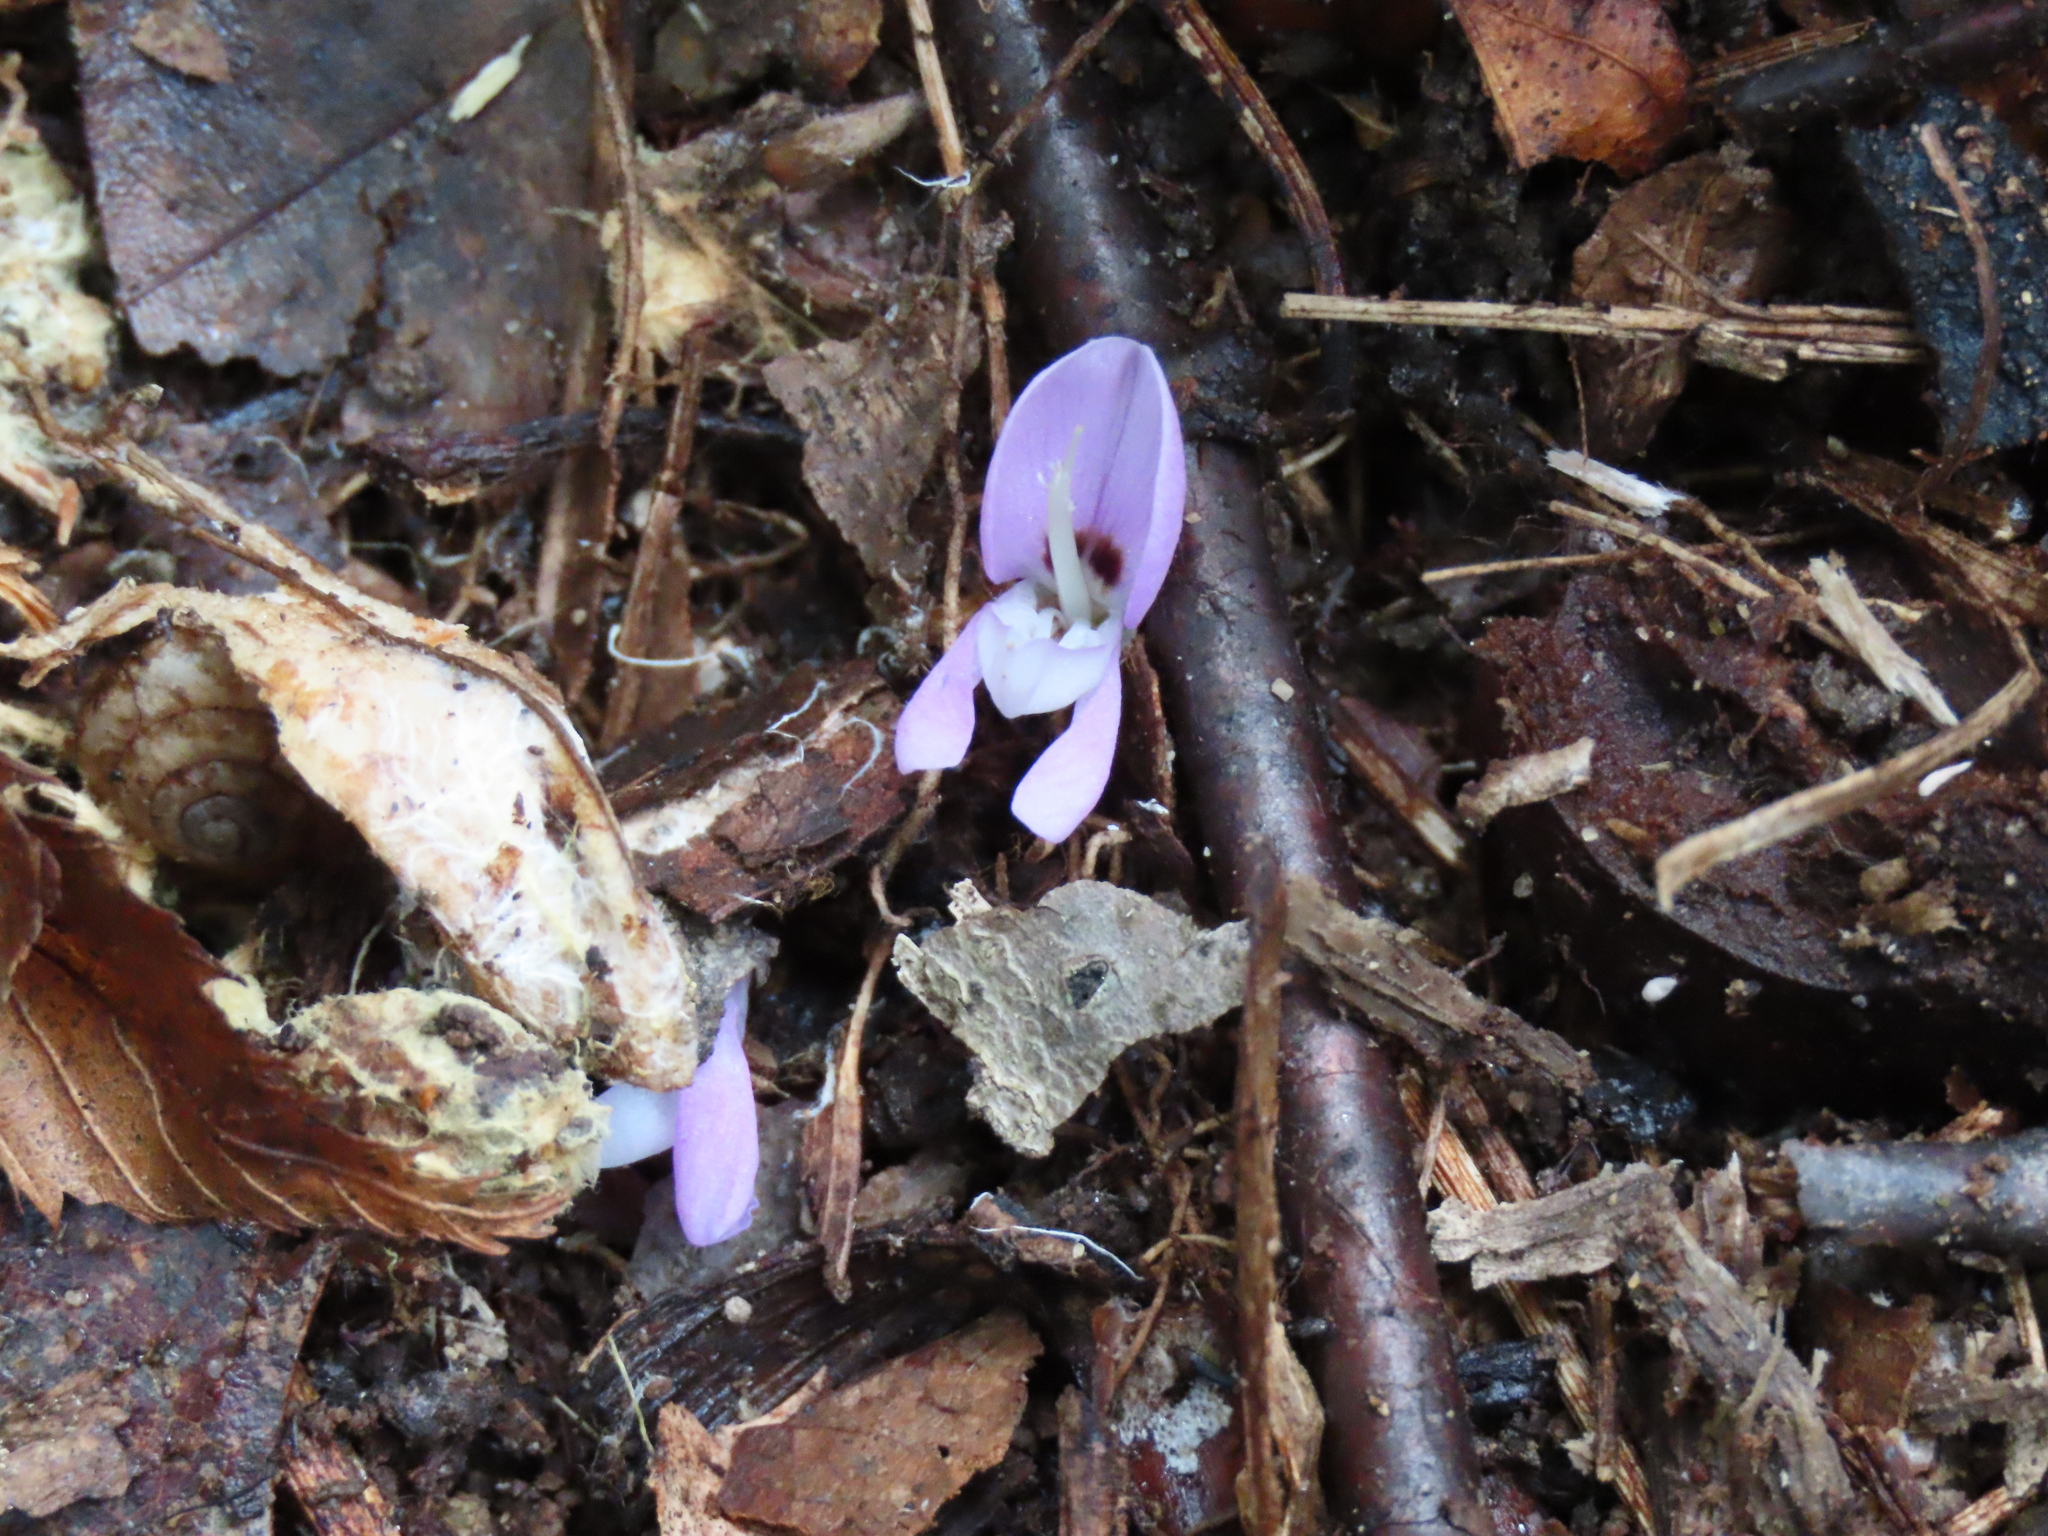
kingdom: Plantae
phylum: Tracheophyta
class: Magnoliopsida
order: Fabales
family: Fabaceae
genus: Hylodesmum
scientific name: Hylodesmum nudiflorum
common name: Bare-stemmed tick-trefoil
